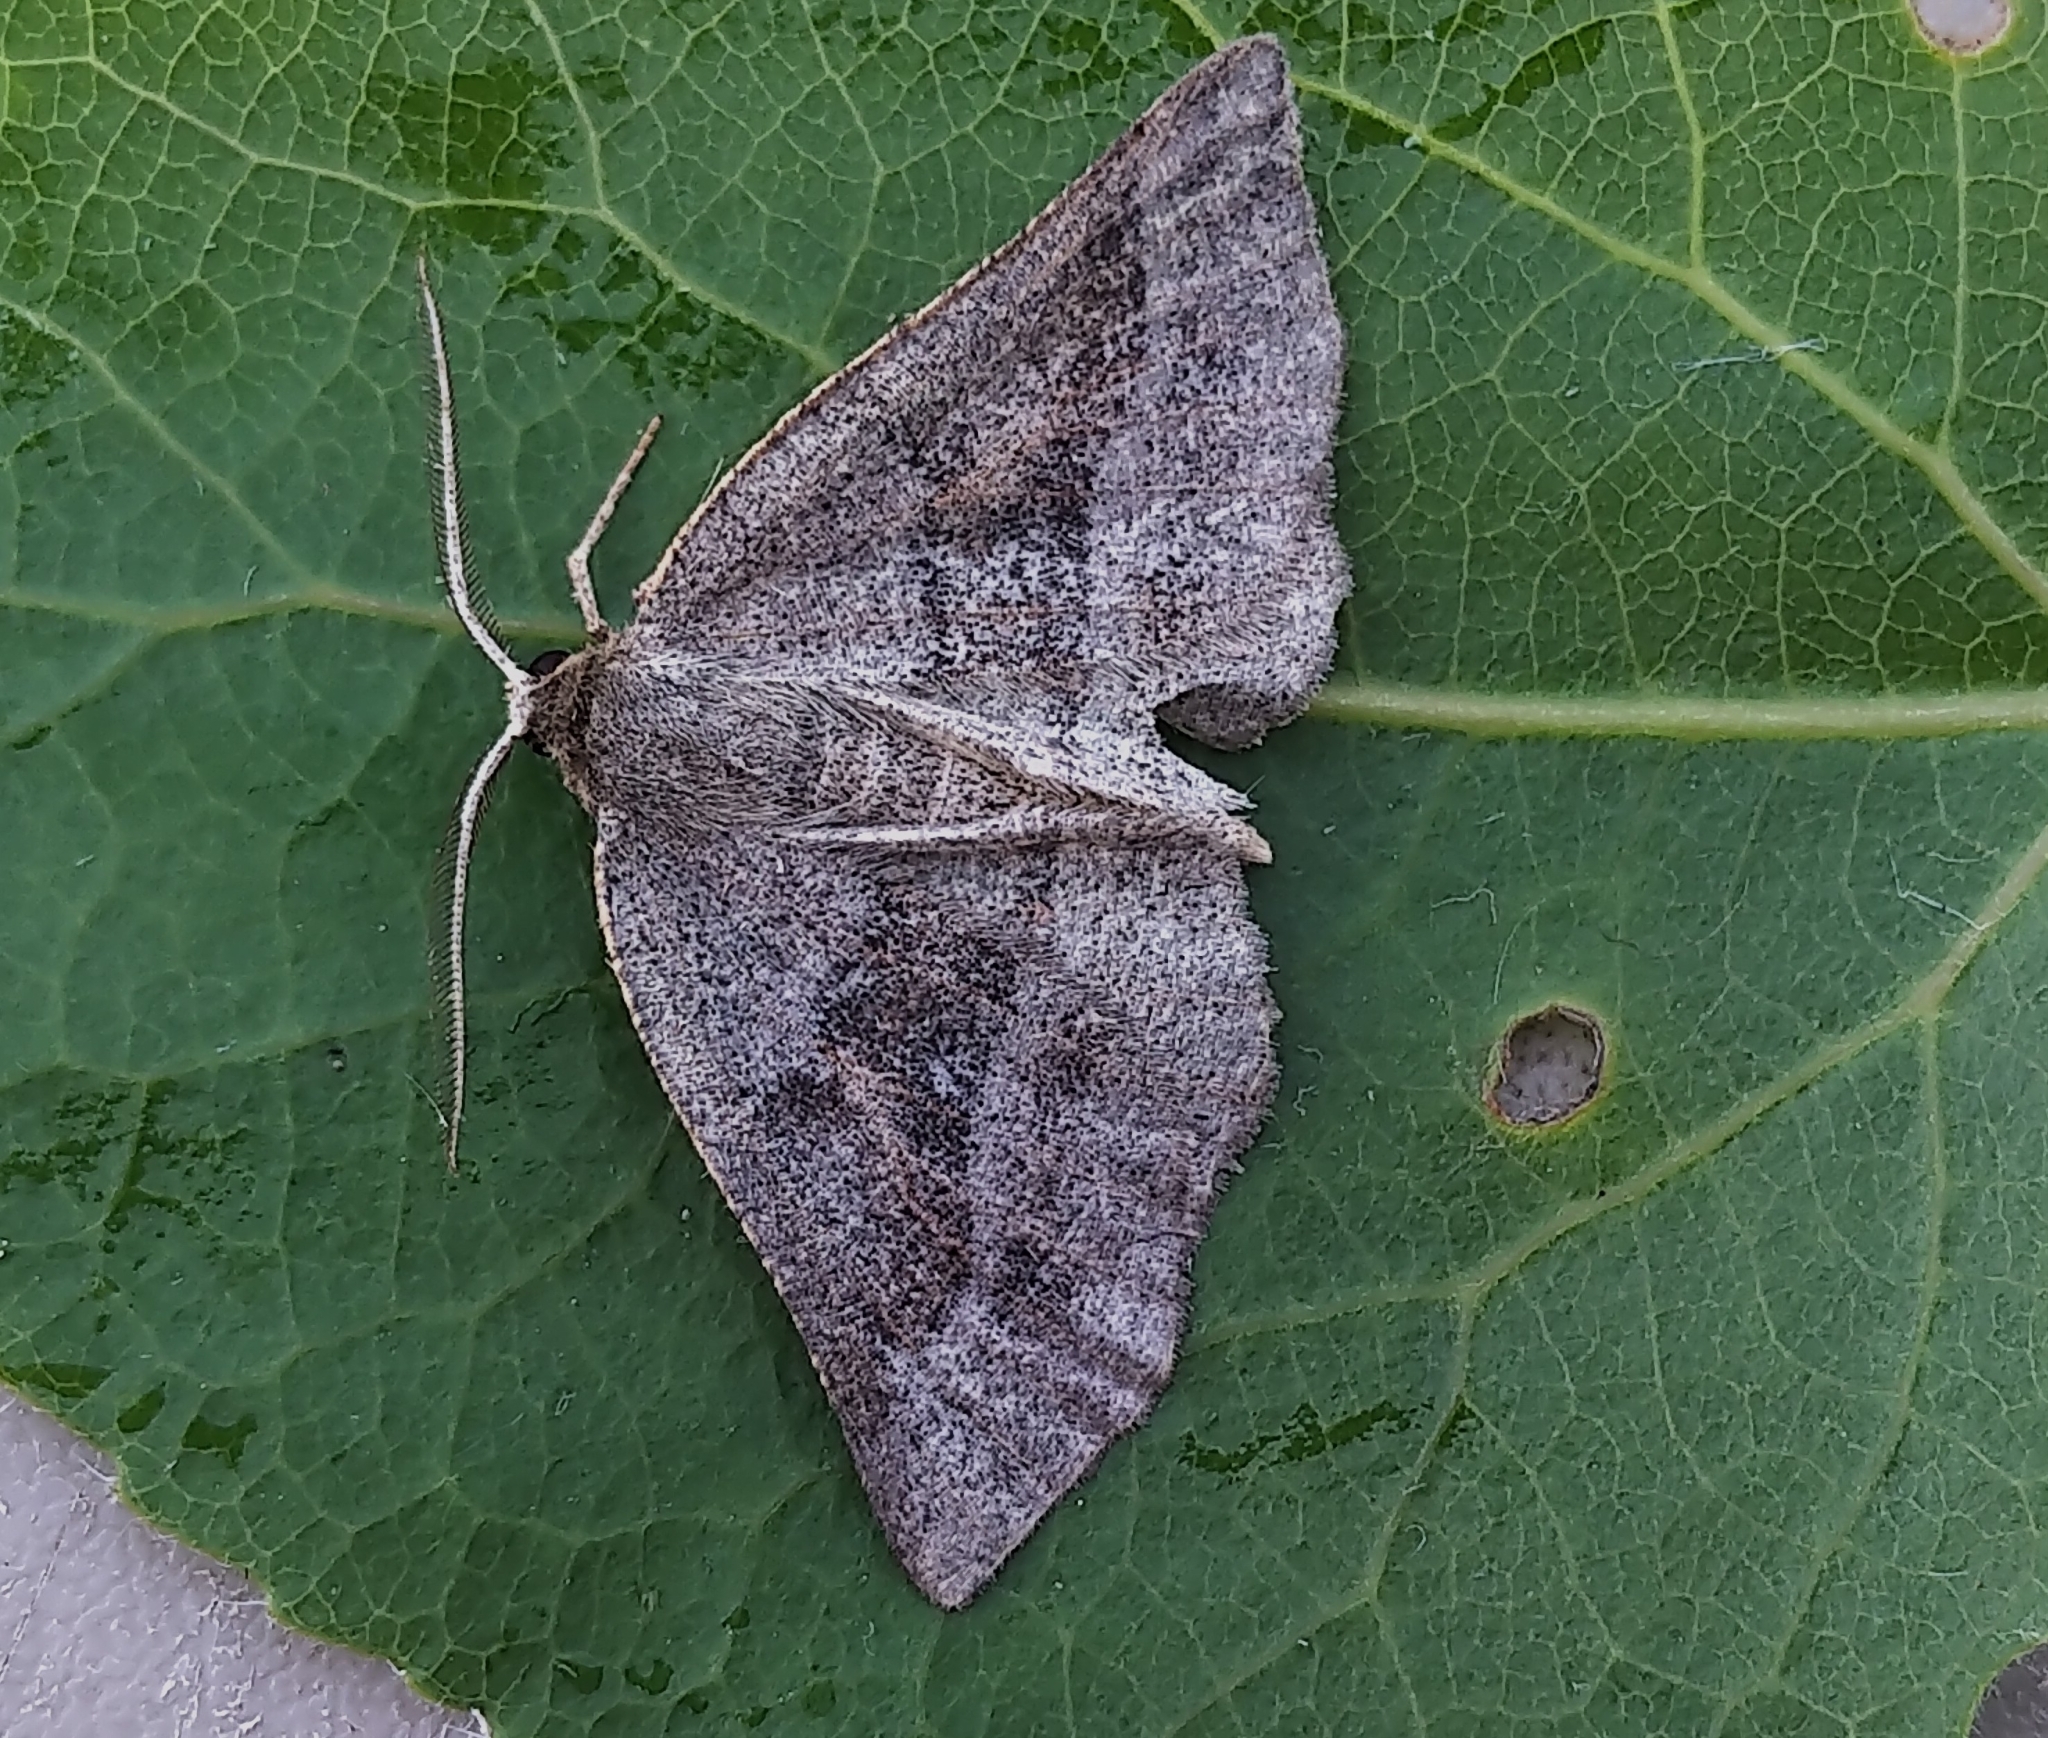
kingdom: Animalia
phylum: Arthropoda
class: Insecta
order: Lepidoptera
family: Geometridae
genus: Metarranthis
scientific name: Metarranthis warneri
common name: Warner's metarranthis moth
